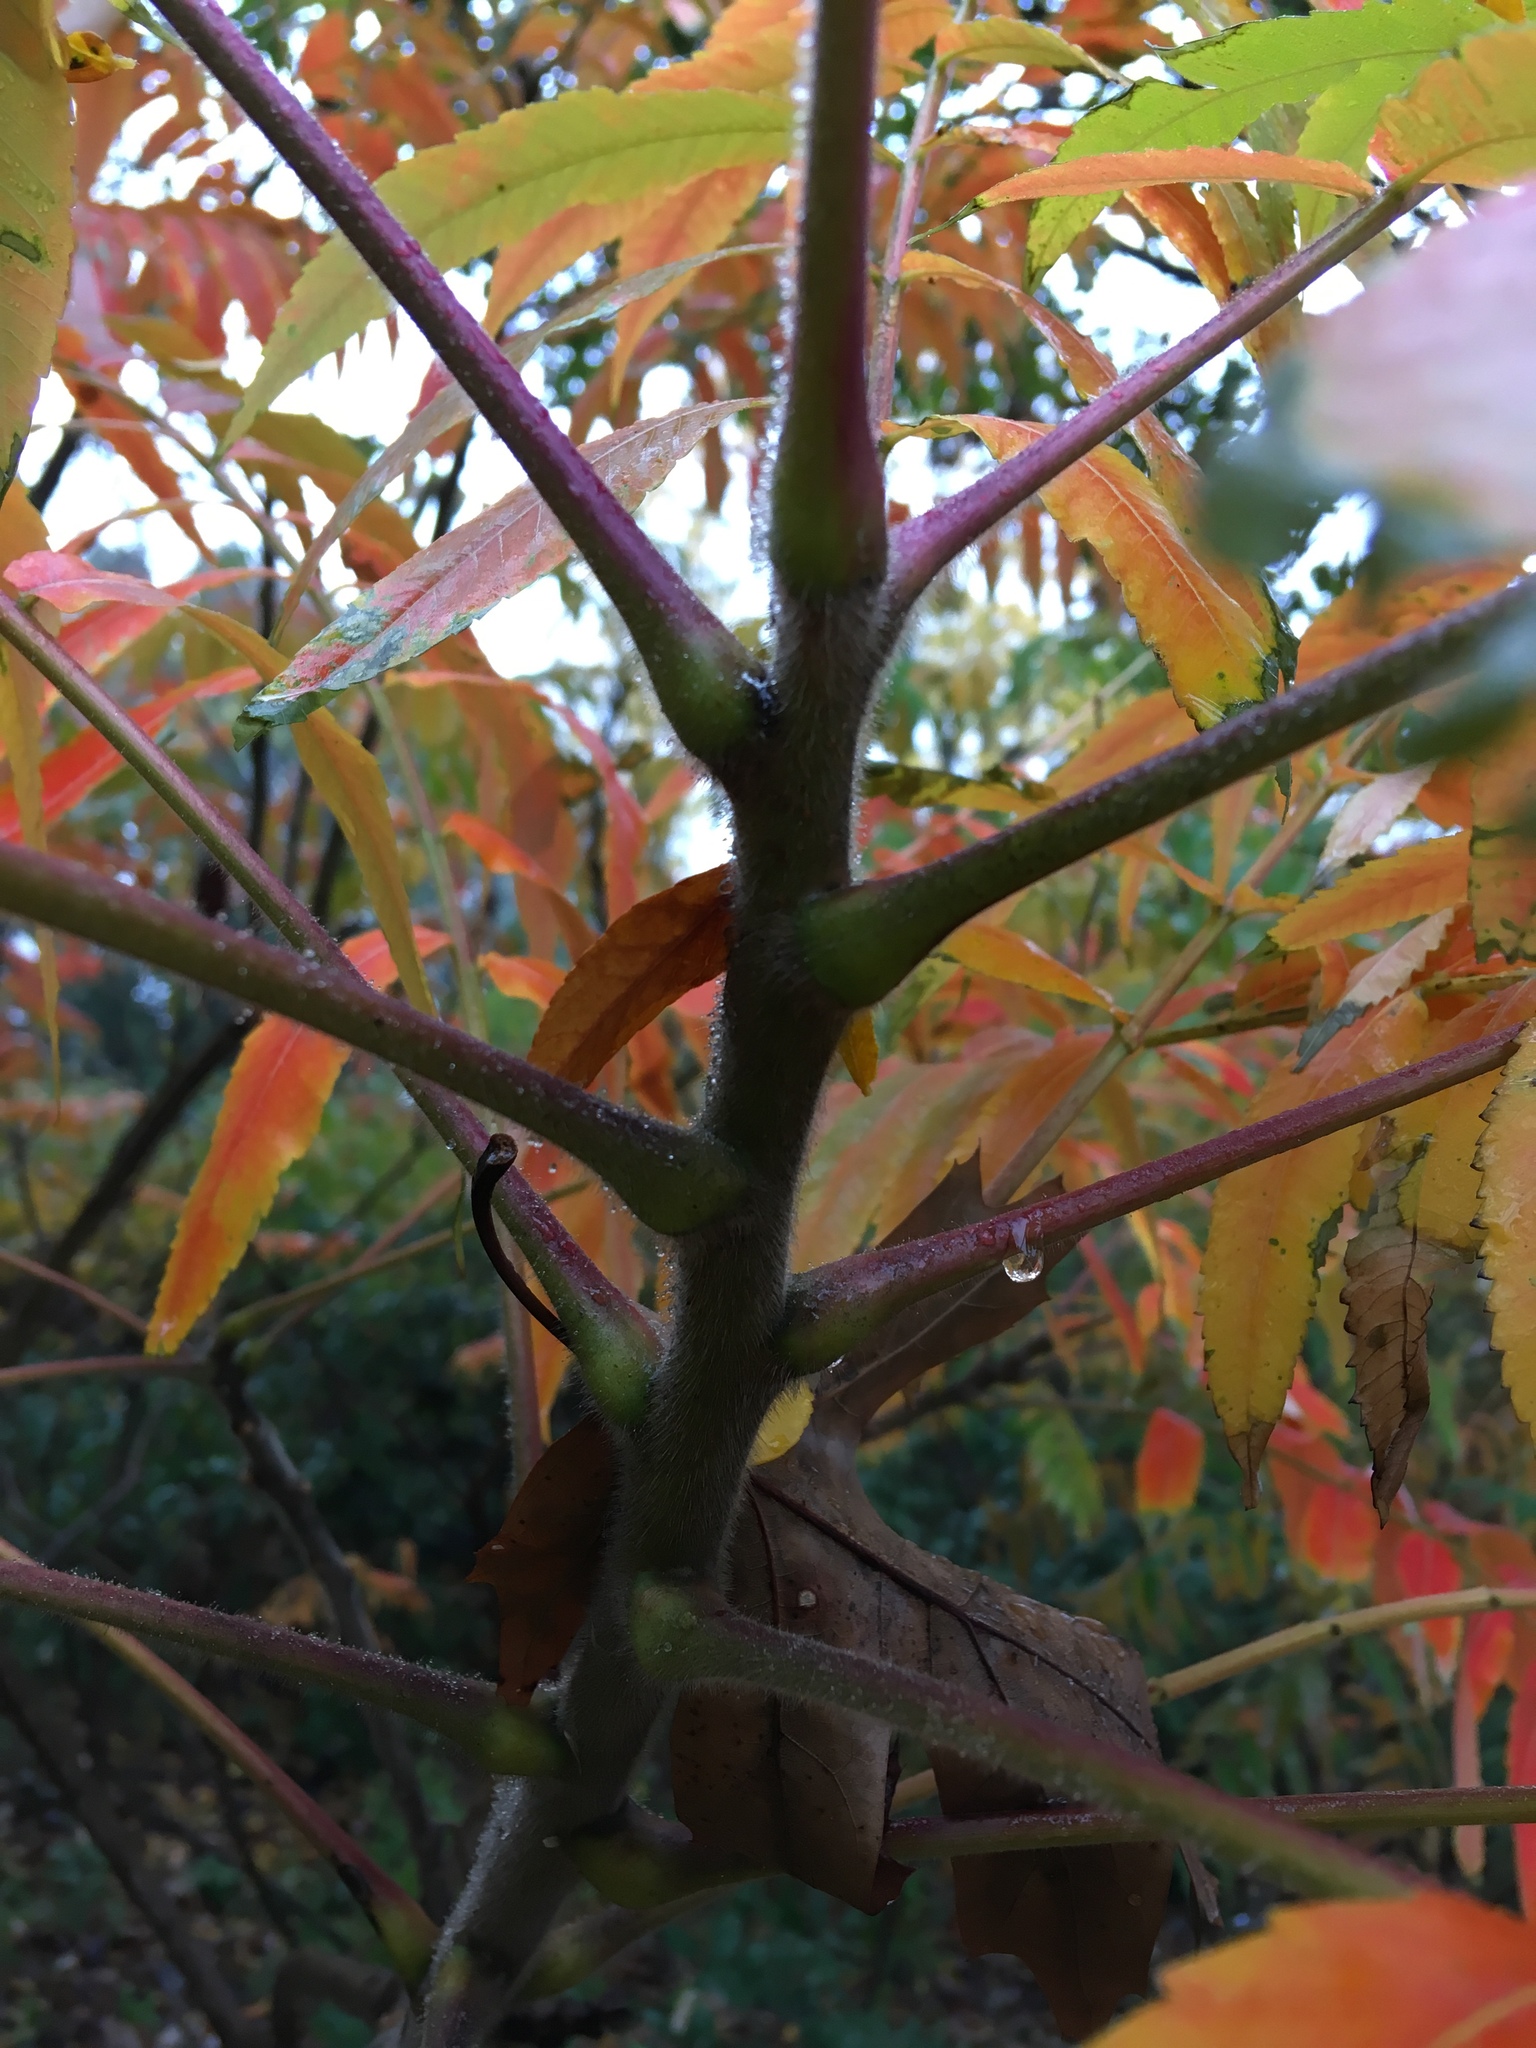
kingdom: Plantae
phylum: Tracheophyta
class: Magnoliopsida
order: Sapindales
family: Anacardiaceae
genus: Rhus
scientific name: Rhus typhina
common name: Staghorn sumac
